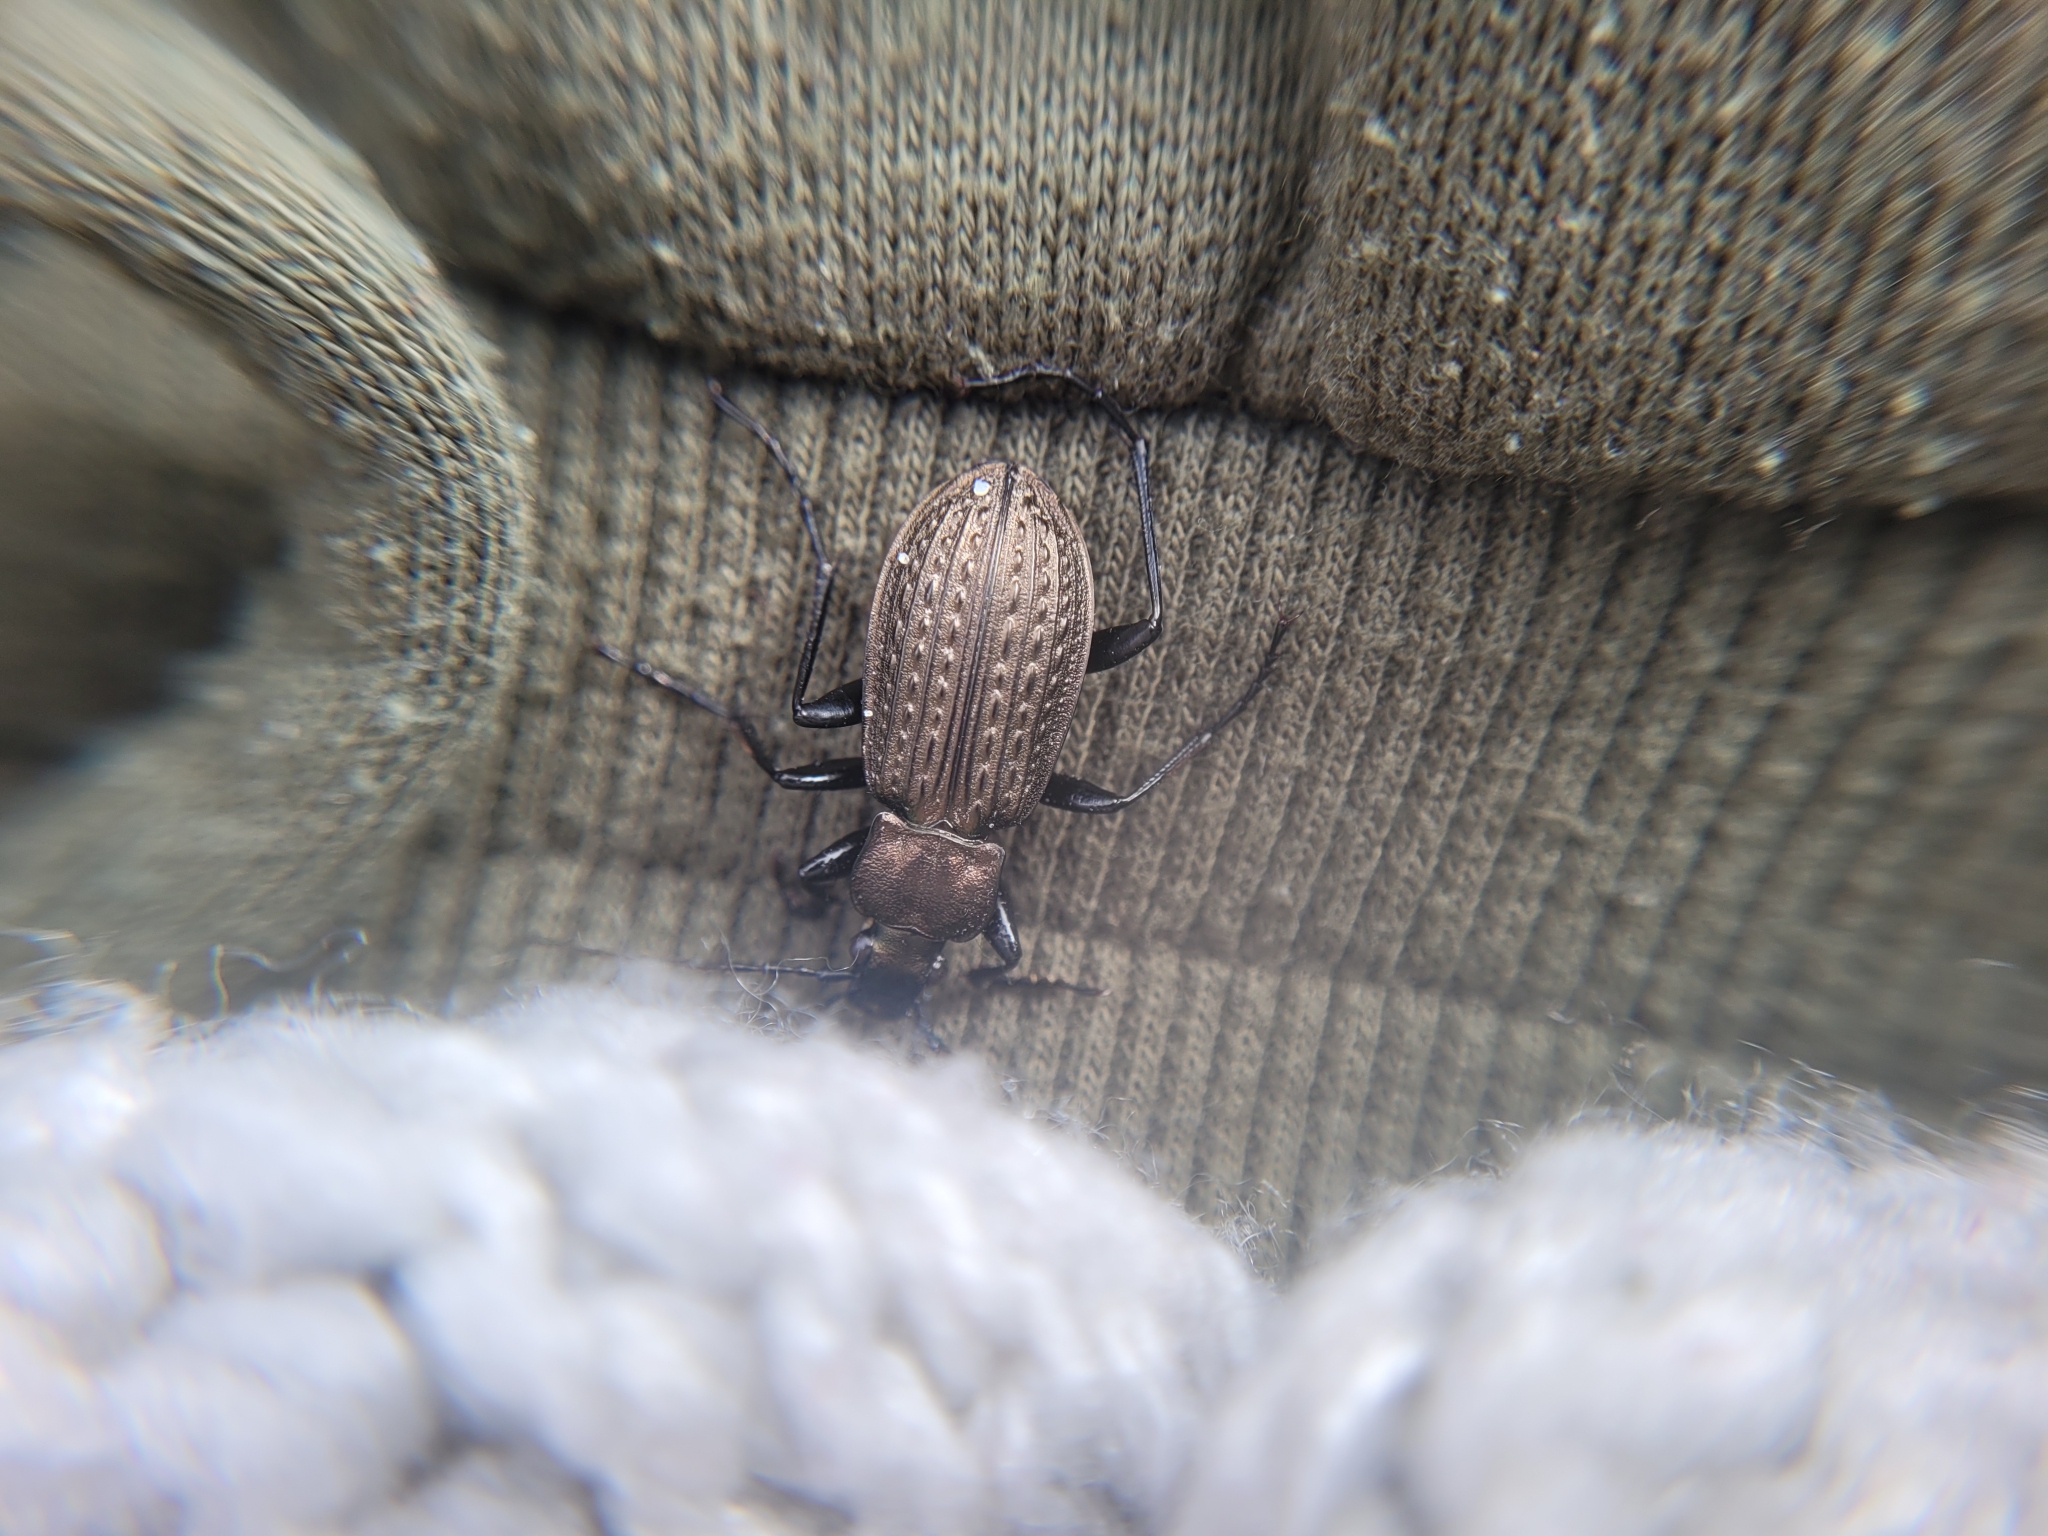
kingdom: Animalia
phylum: Arthropoda
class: Insecta
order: Coleoptera
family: Carabidae
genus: Carabus
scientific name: Carabus granulatus
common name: Granulate ground beetle
